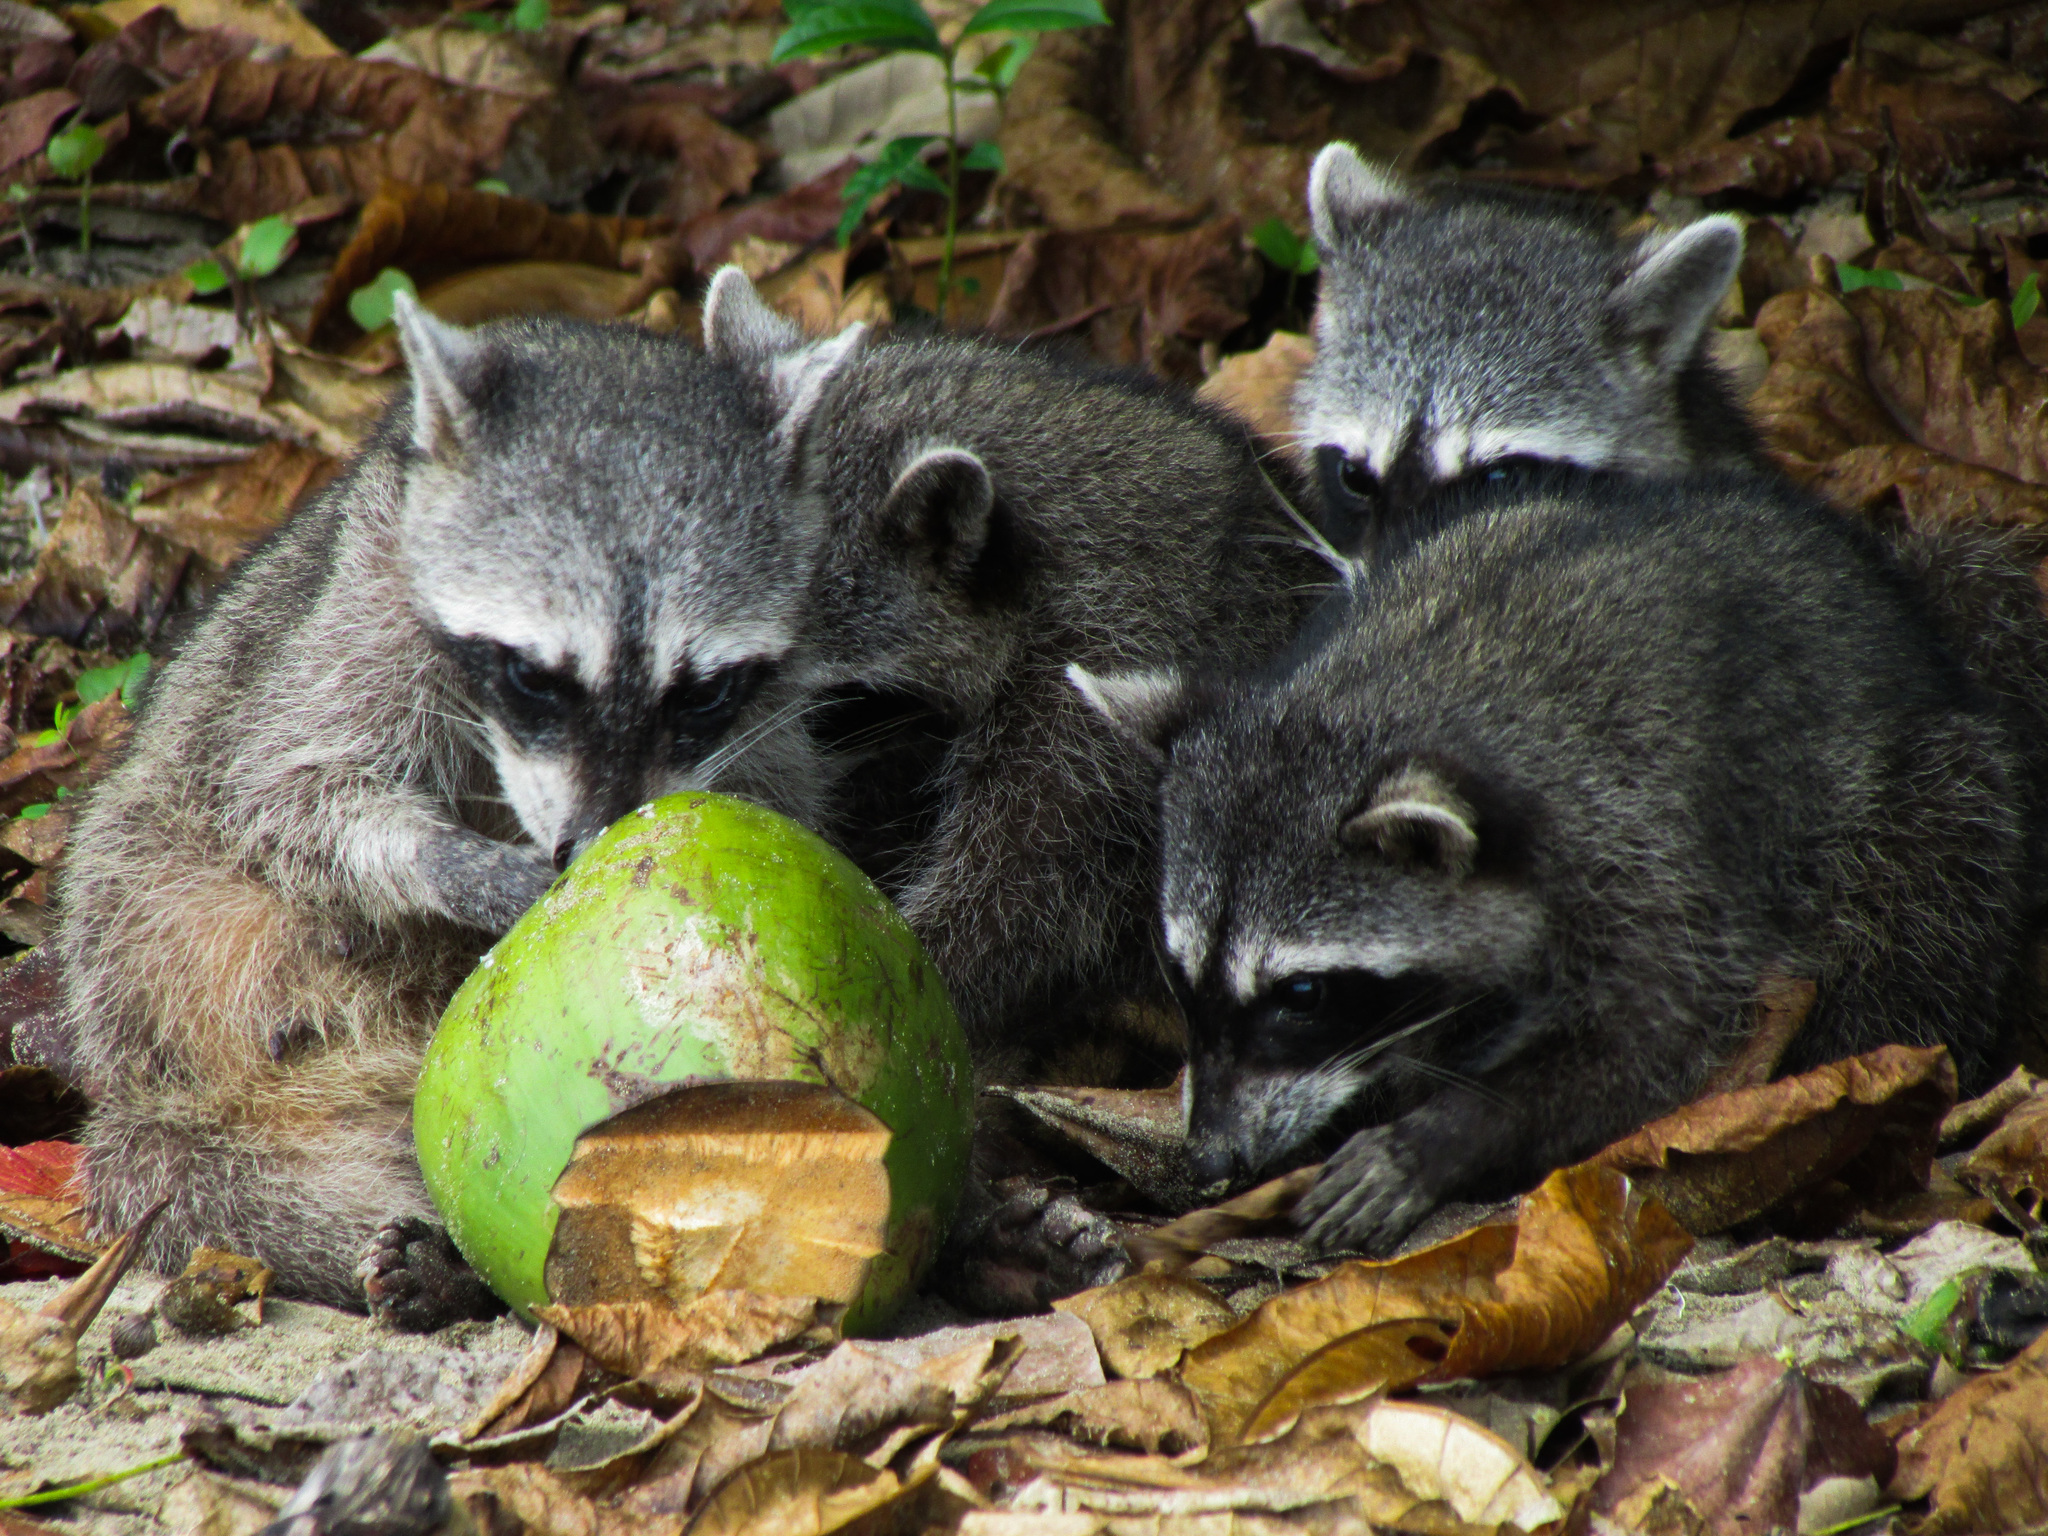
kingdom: Animalia
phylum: Chordata
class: Mammalia
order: Carnivora
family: Procyonidae
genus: Procyon
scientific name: Procyon lotor
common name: Raccoon
